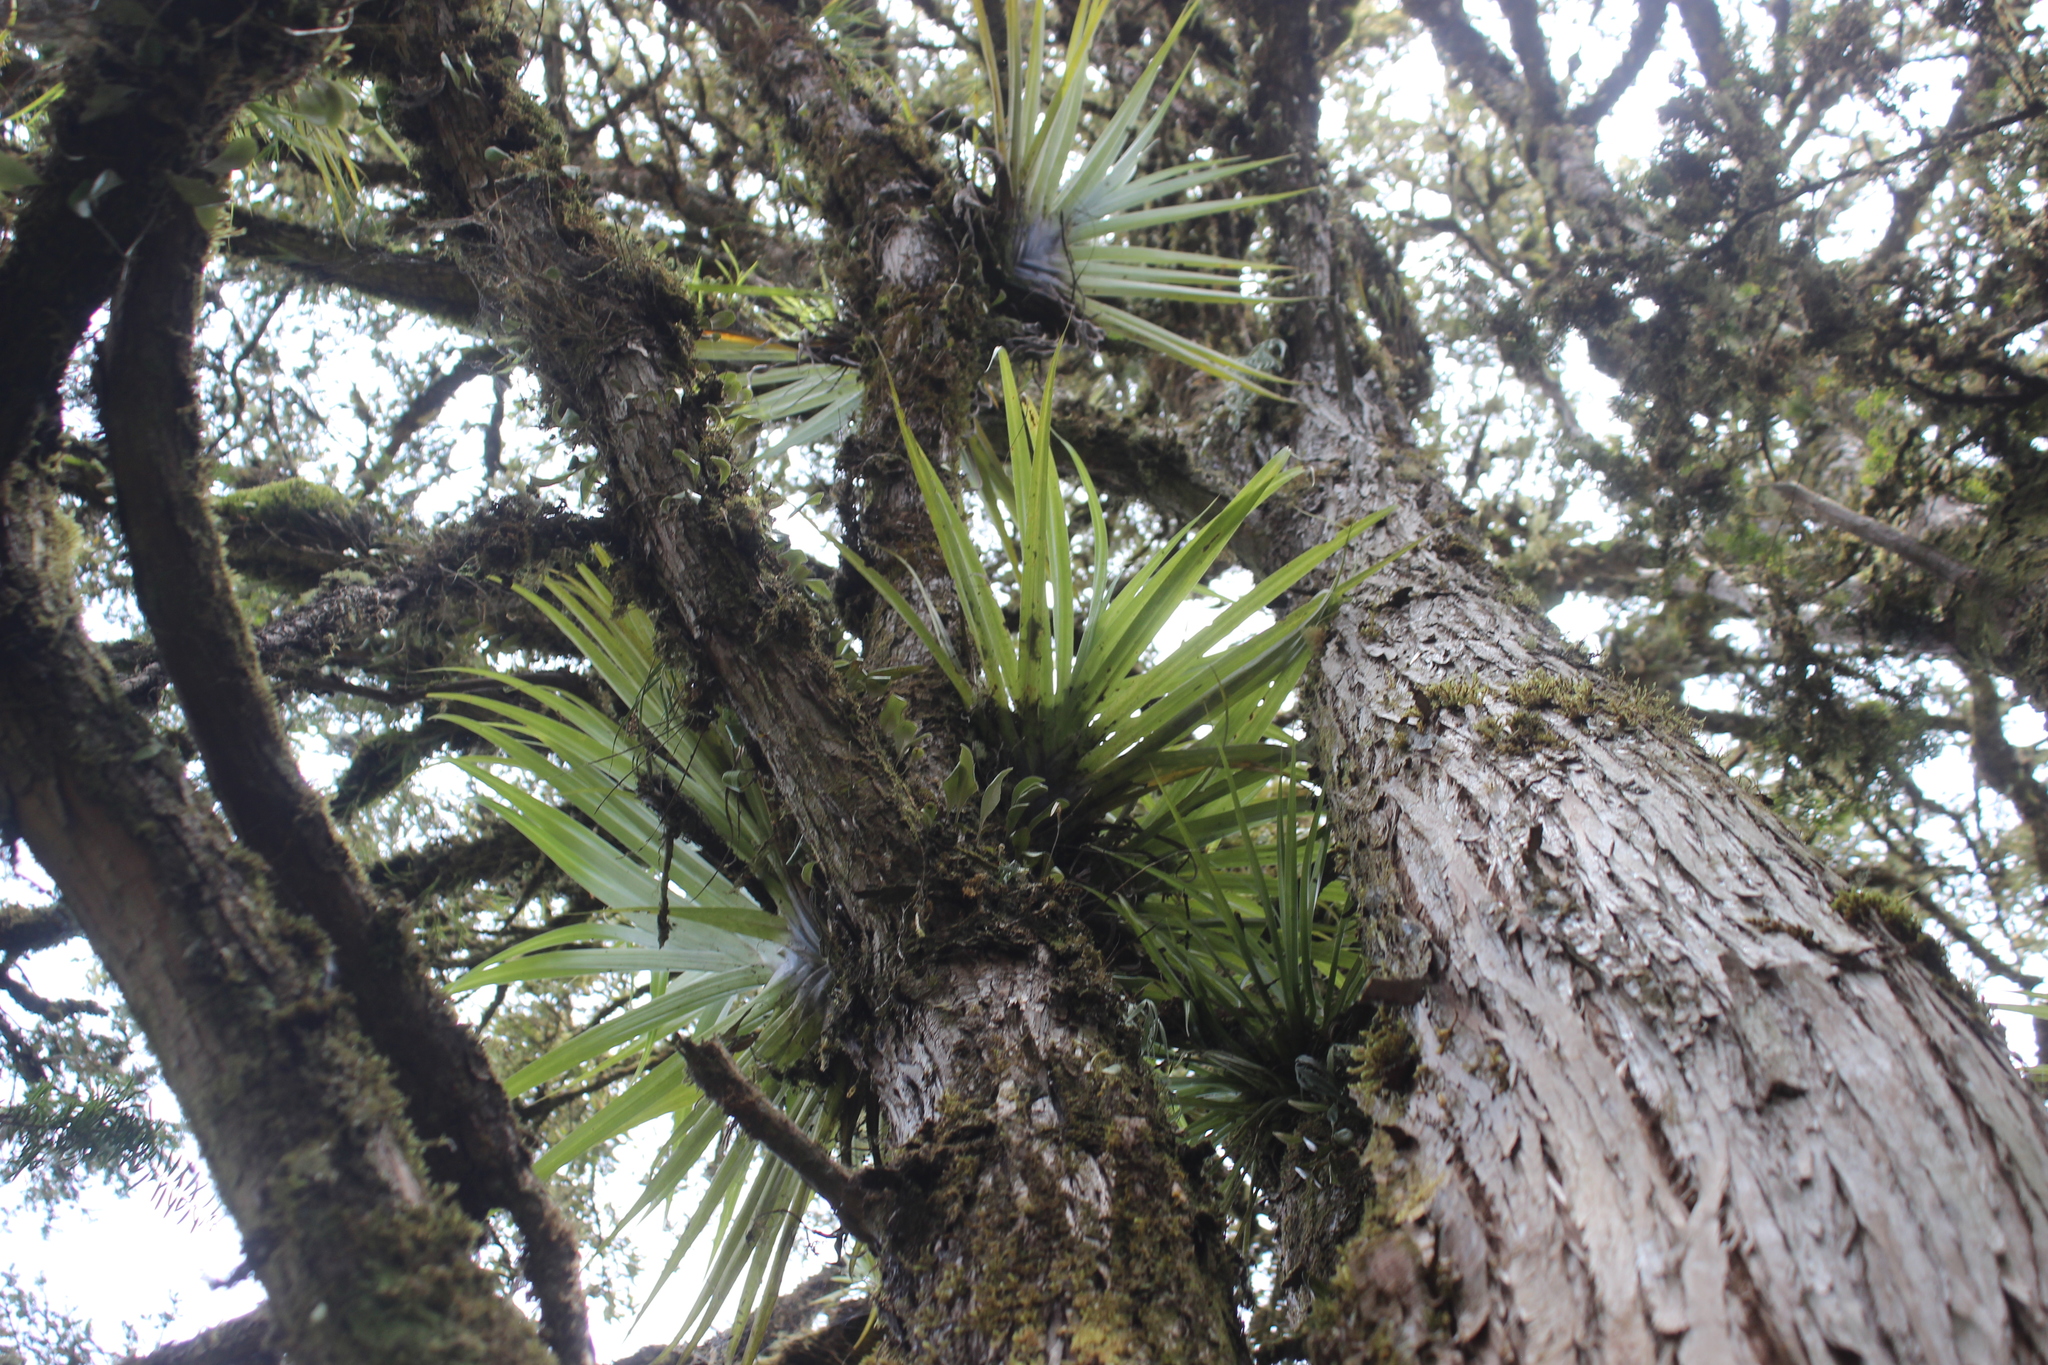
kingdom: Plantae
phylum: Tracheophyta
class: Liliopsida
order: Asparagales
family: Asteliaceae
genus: Astelia
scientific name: Astelia hastata
